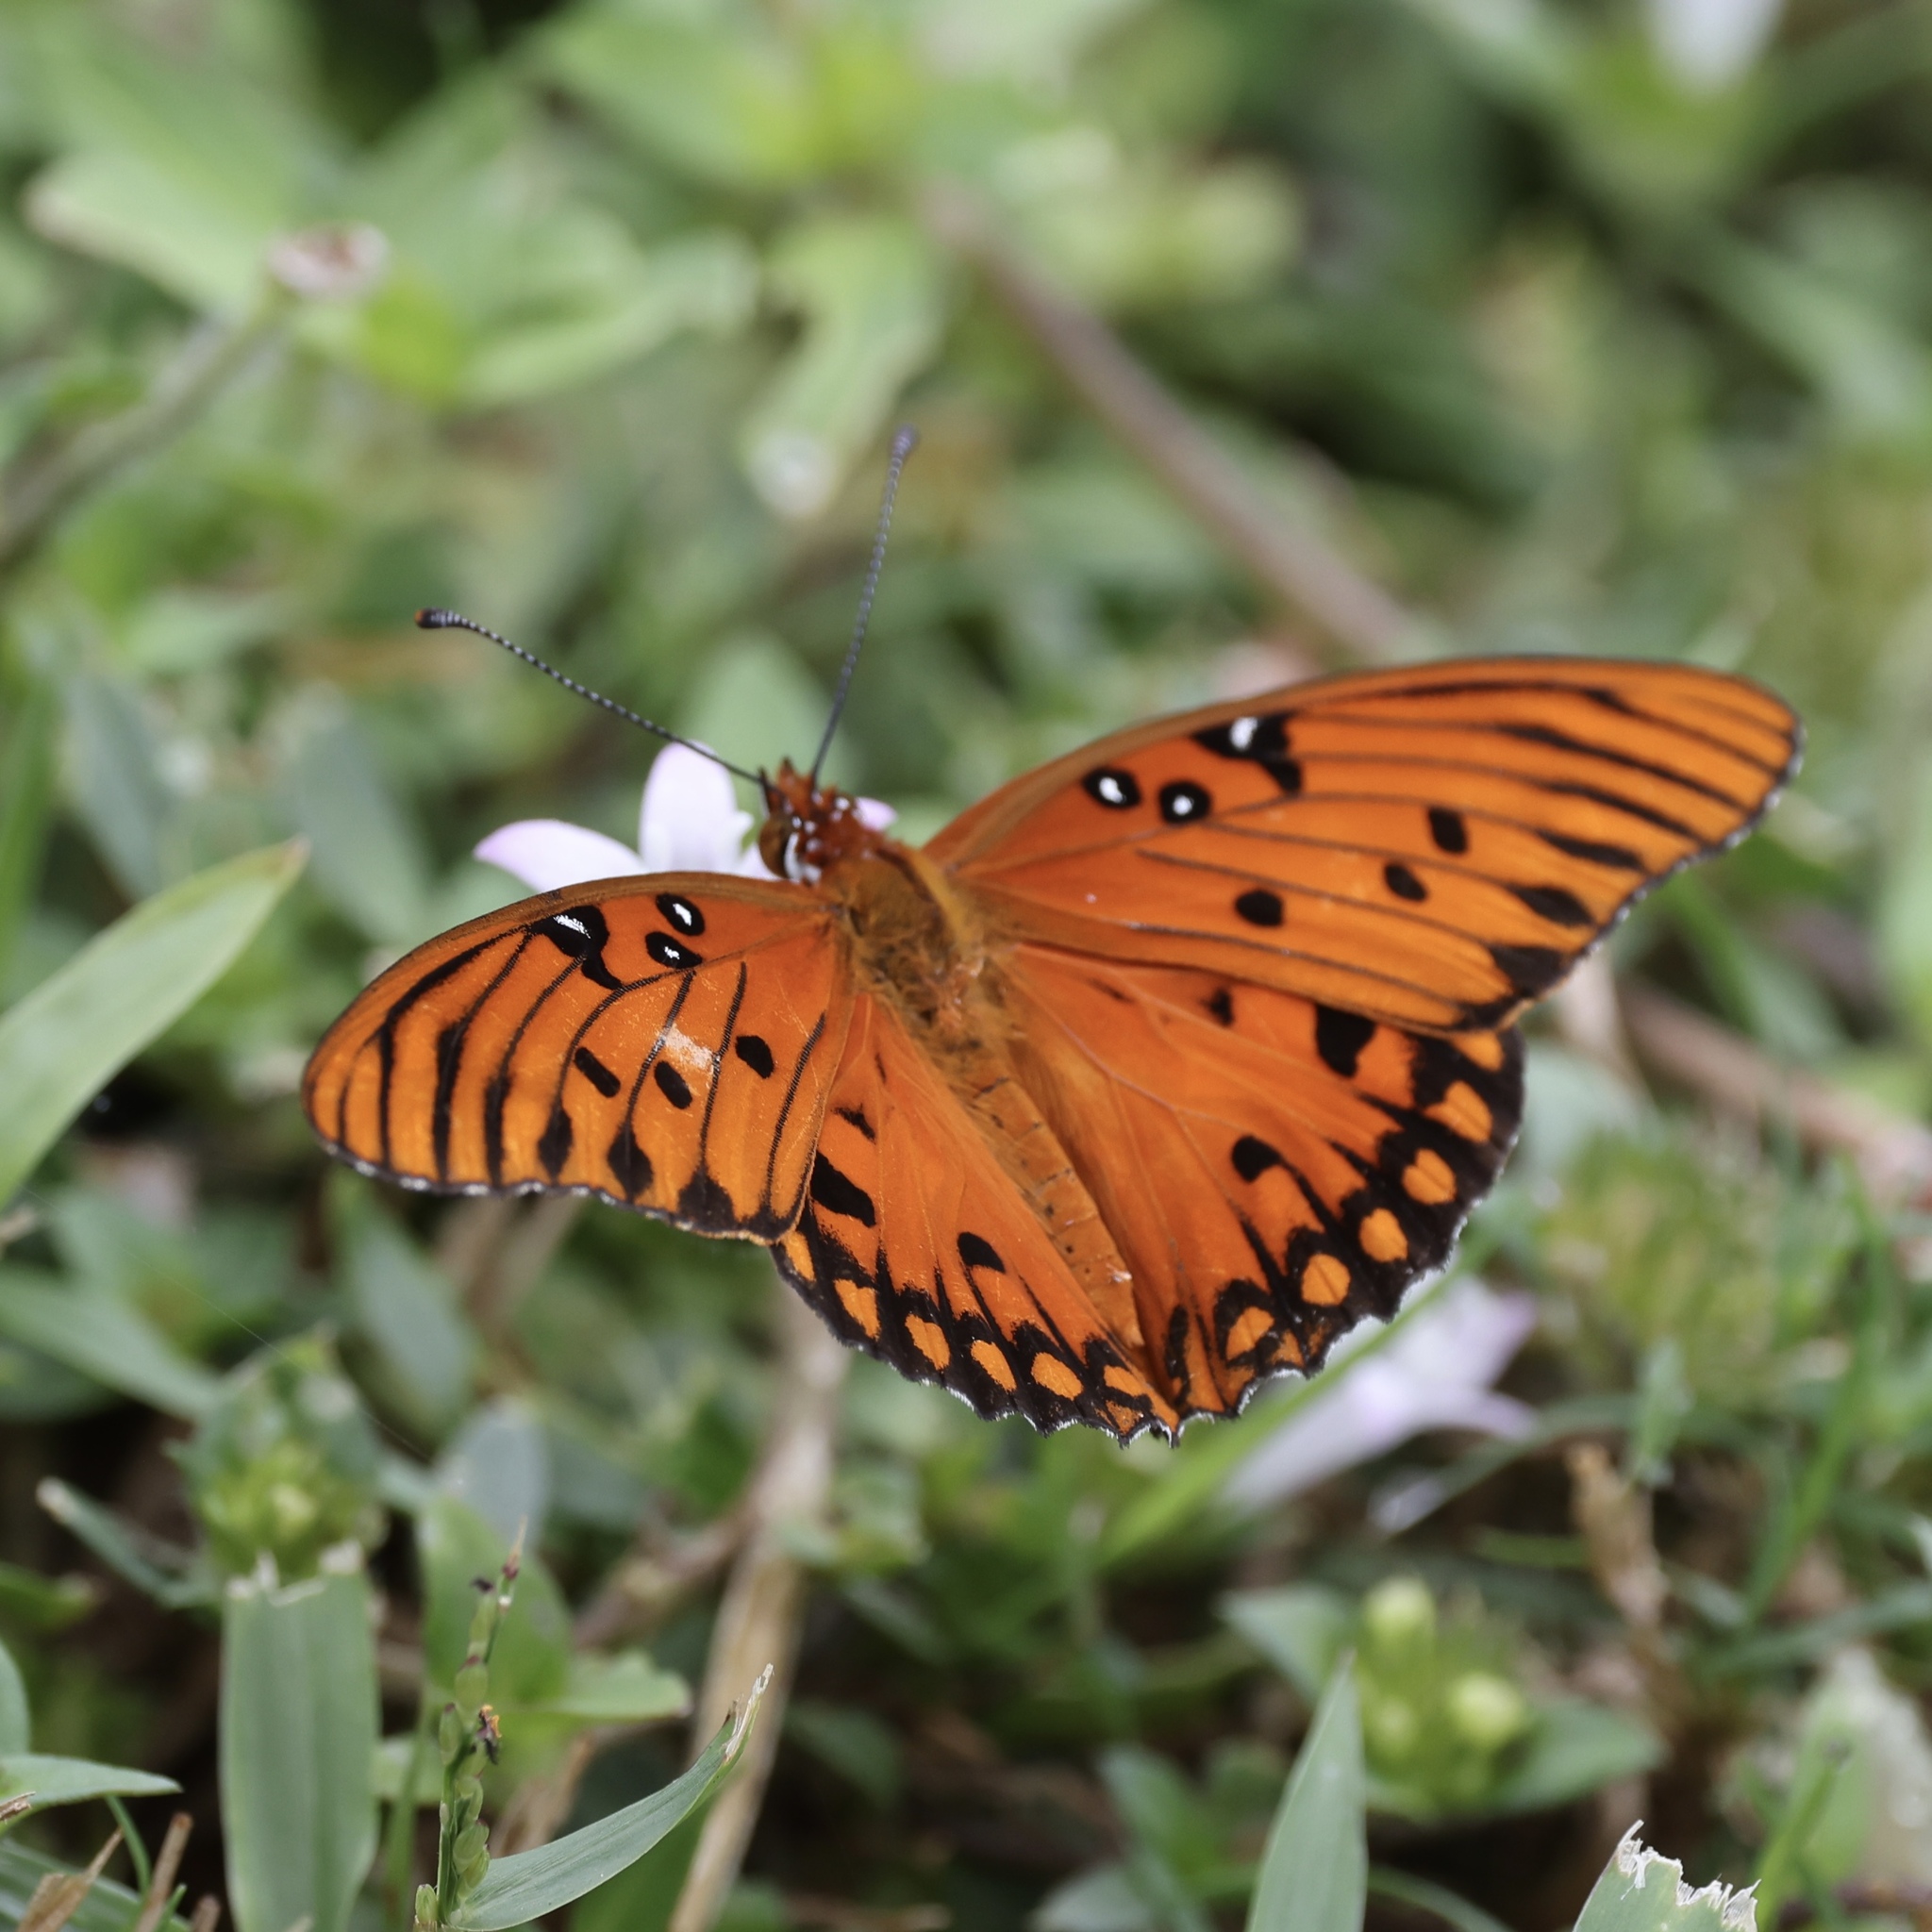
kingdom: Animalia
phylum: Arthropoda
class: Insecta
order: Lepidoptera
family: Nymphalidae
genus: Dione
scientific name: Dione vanillae
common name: Gulf fritillary
